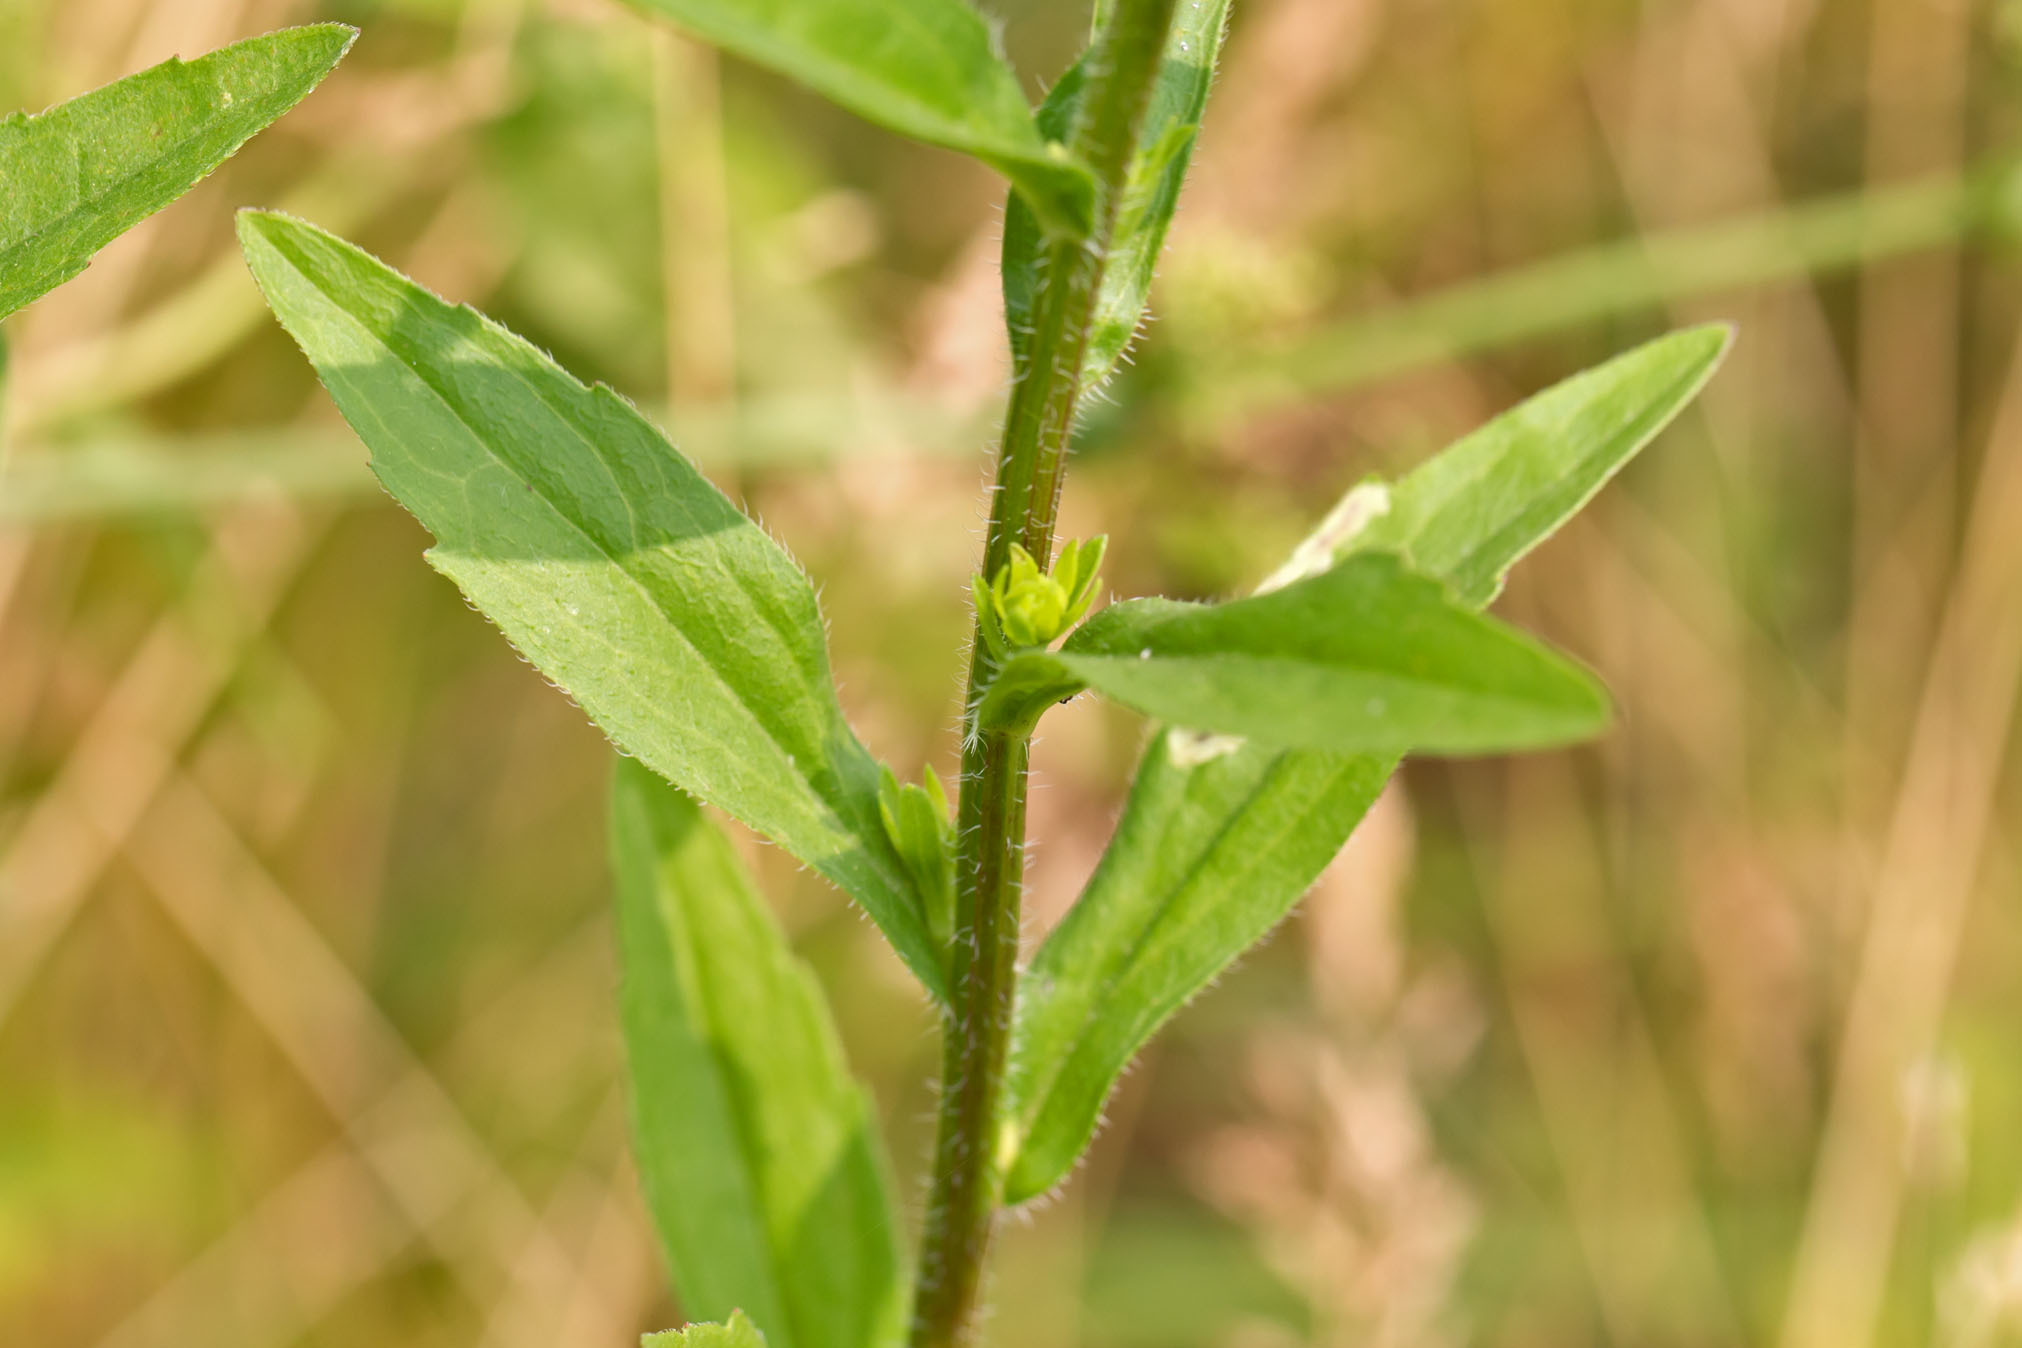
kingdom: Plantae
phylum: Tracheophyta
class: Magnoliopsida
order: Asterales
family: Asteraceae
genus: Erigeron
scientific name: Erigeron annuus
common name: Tall fleabane
